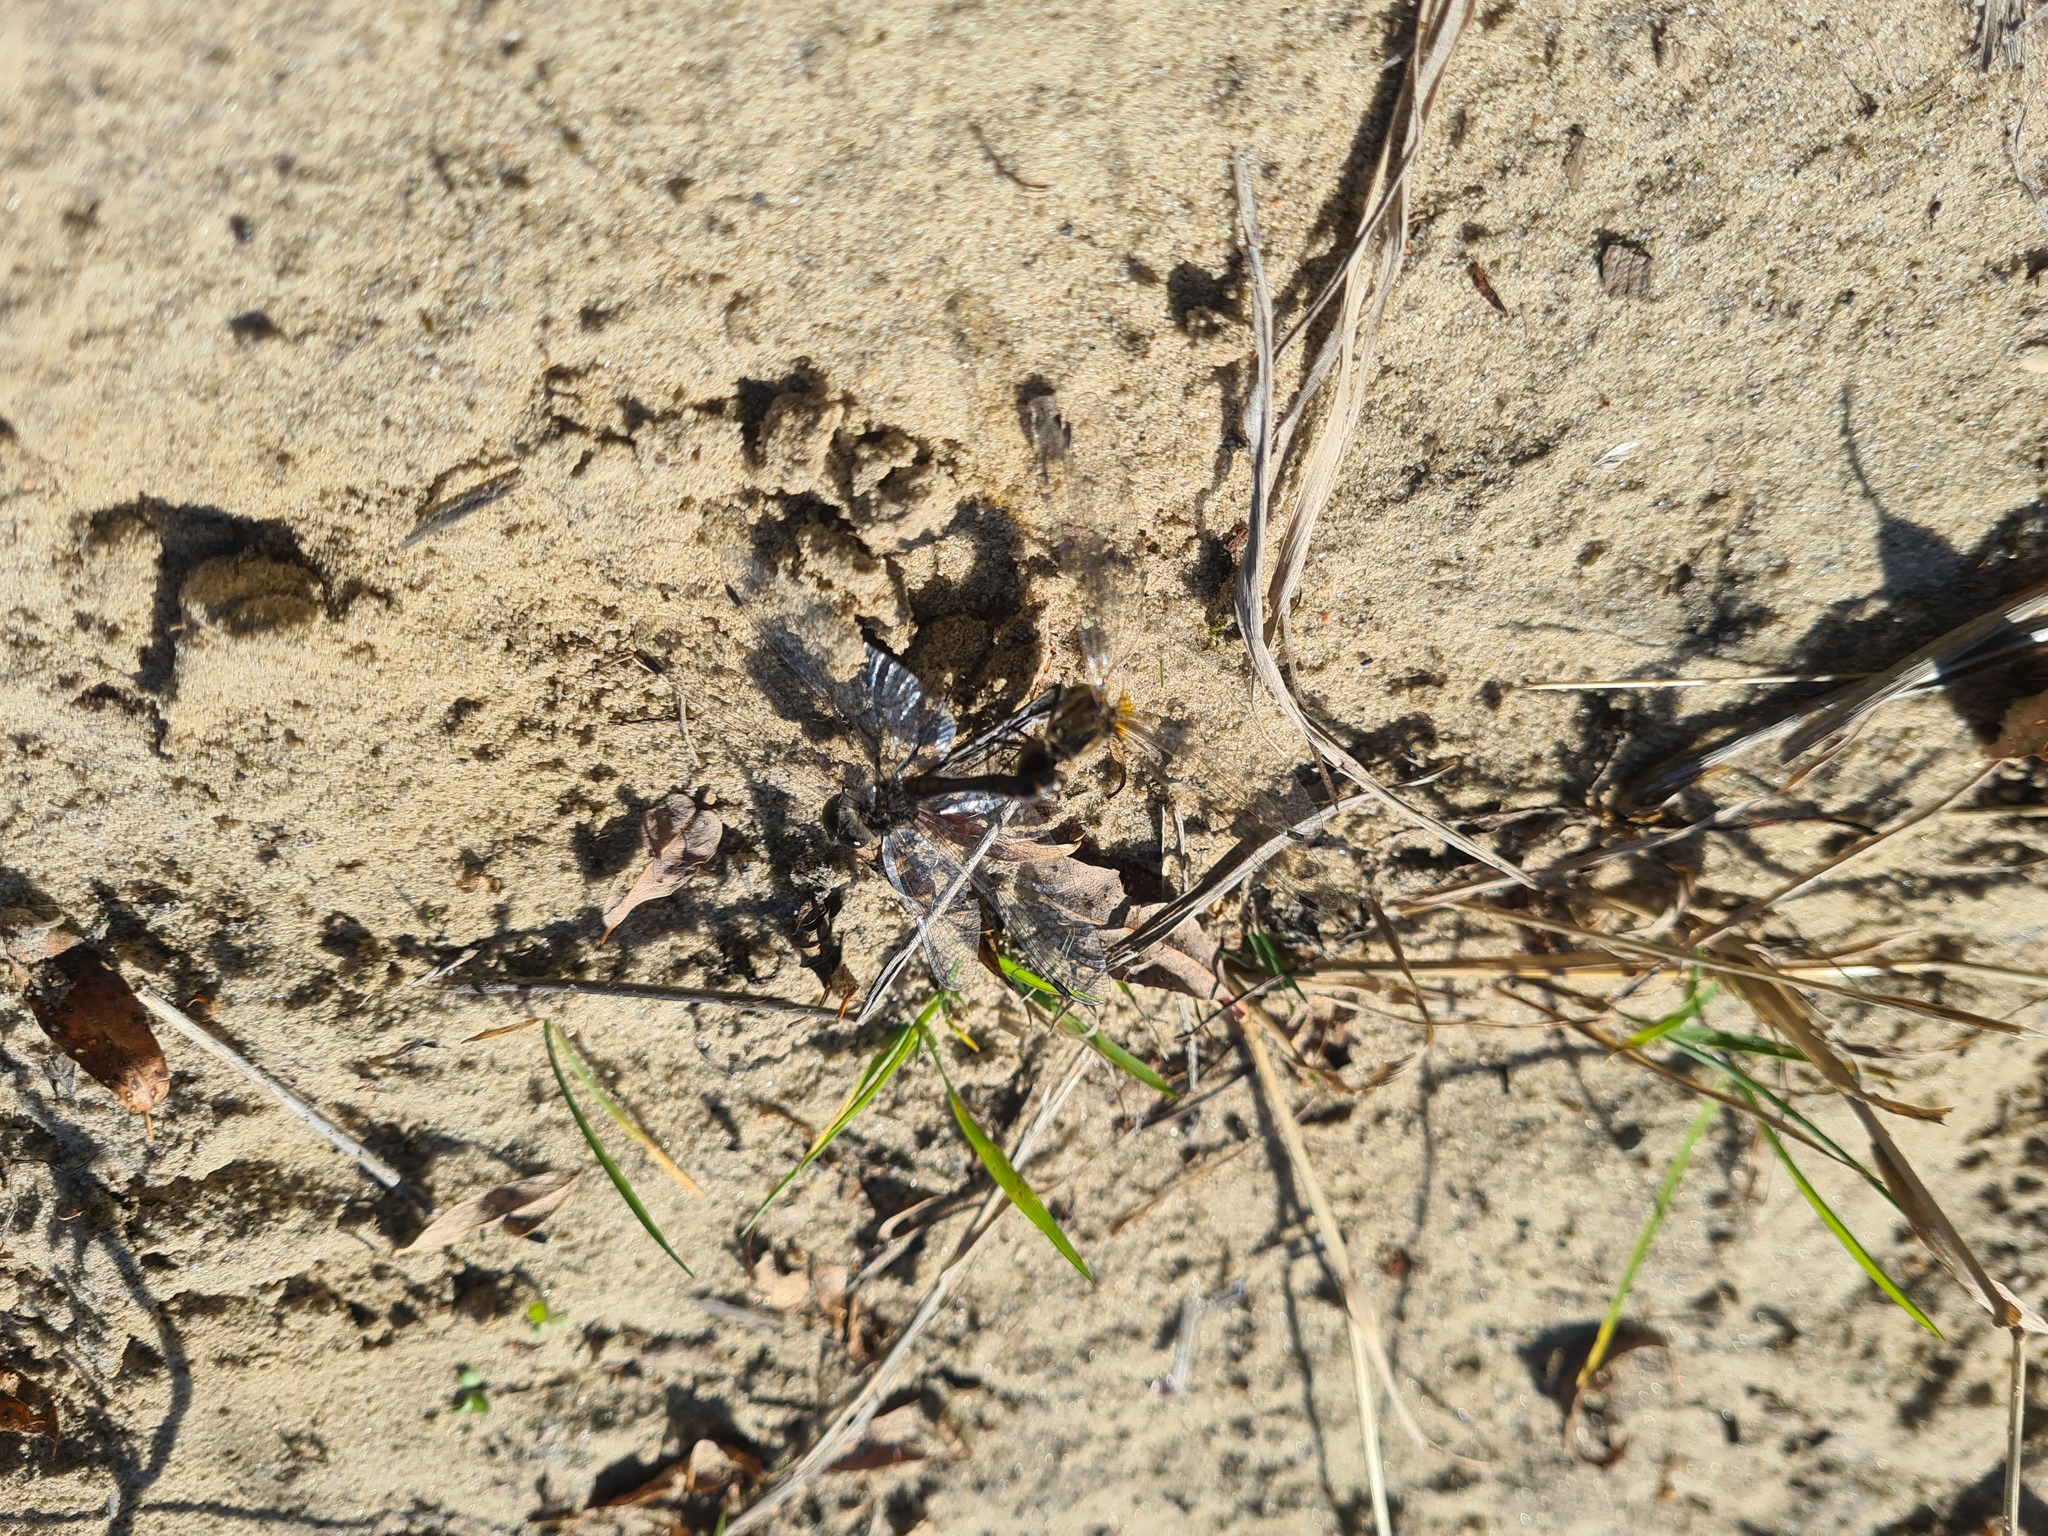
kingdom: Animalia
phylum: Arthropoda
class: Insecta
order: Odonata
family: Libellulidae
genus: Sympetrum
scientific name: Sympetrum danae
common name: Black darter
